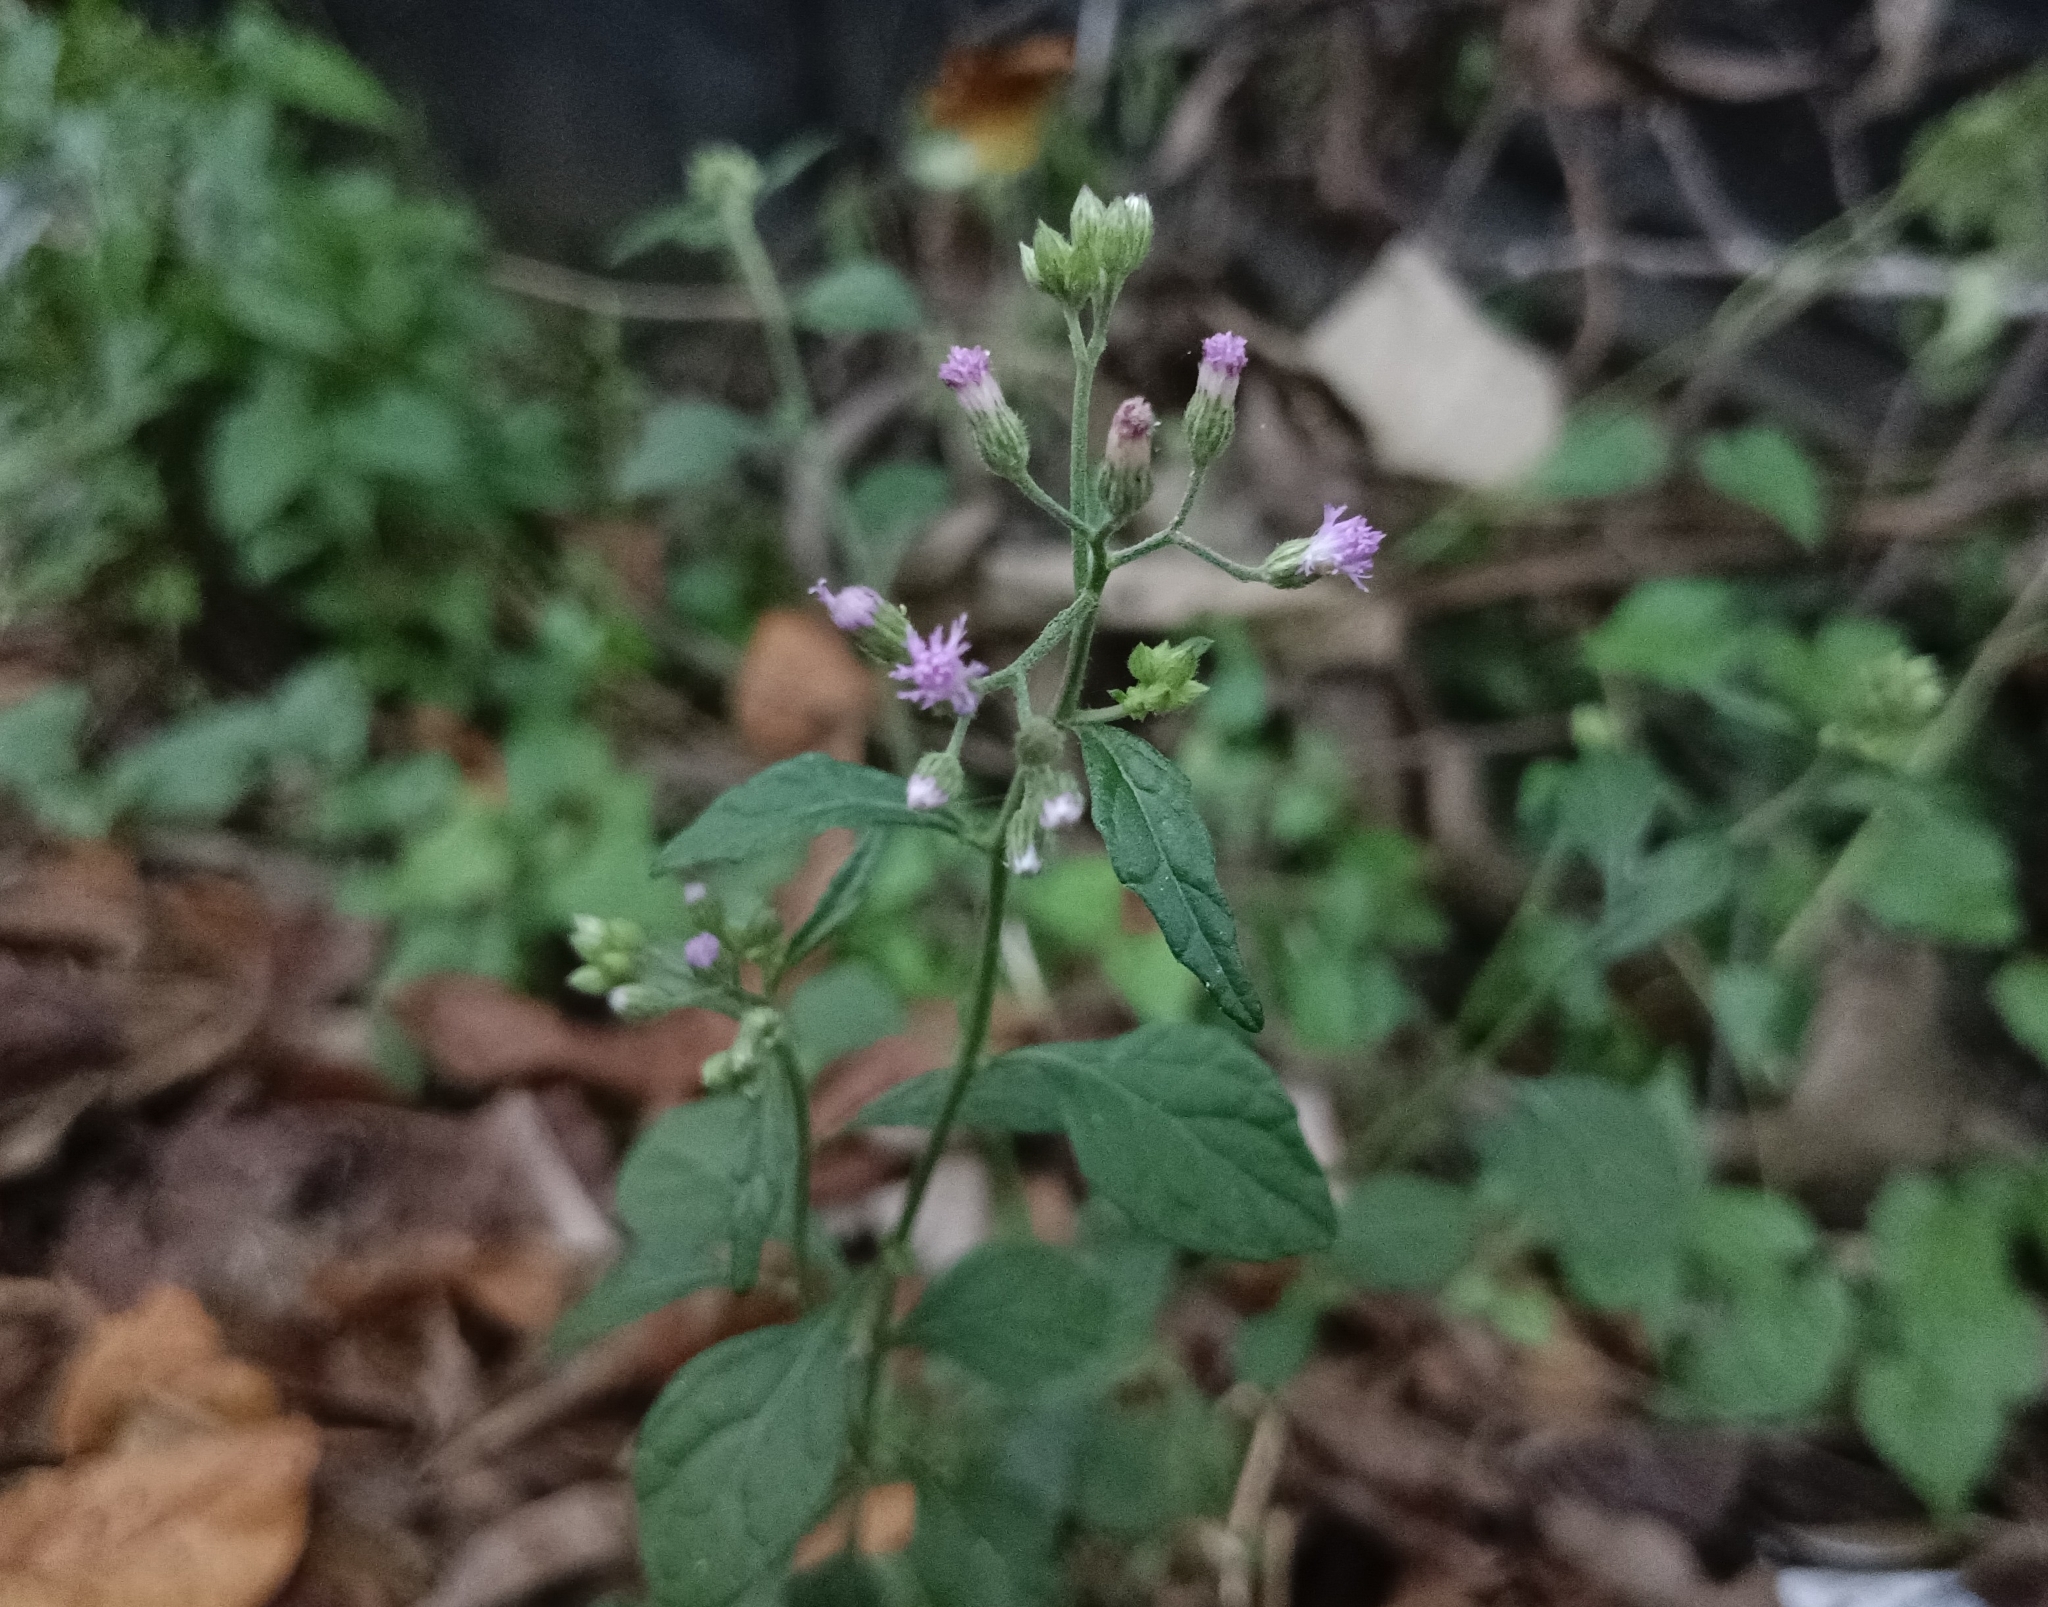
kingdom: Plantae
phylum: Tracheophyta
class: Magnoliopsida
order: Asterales
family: Asteraceae
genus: Cyanthillium
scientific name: Cyanthillium cinereum
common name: Little ironweed
